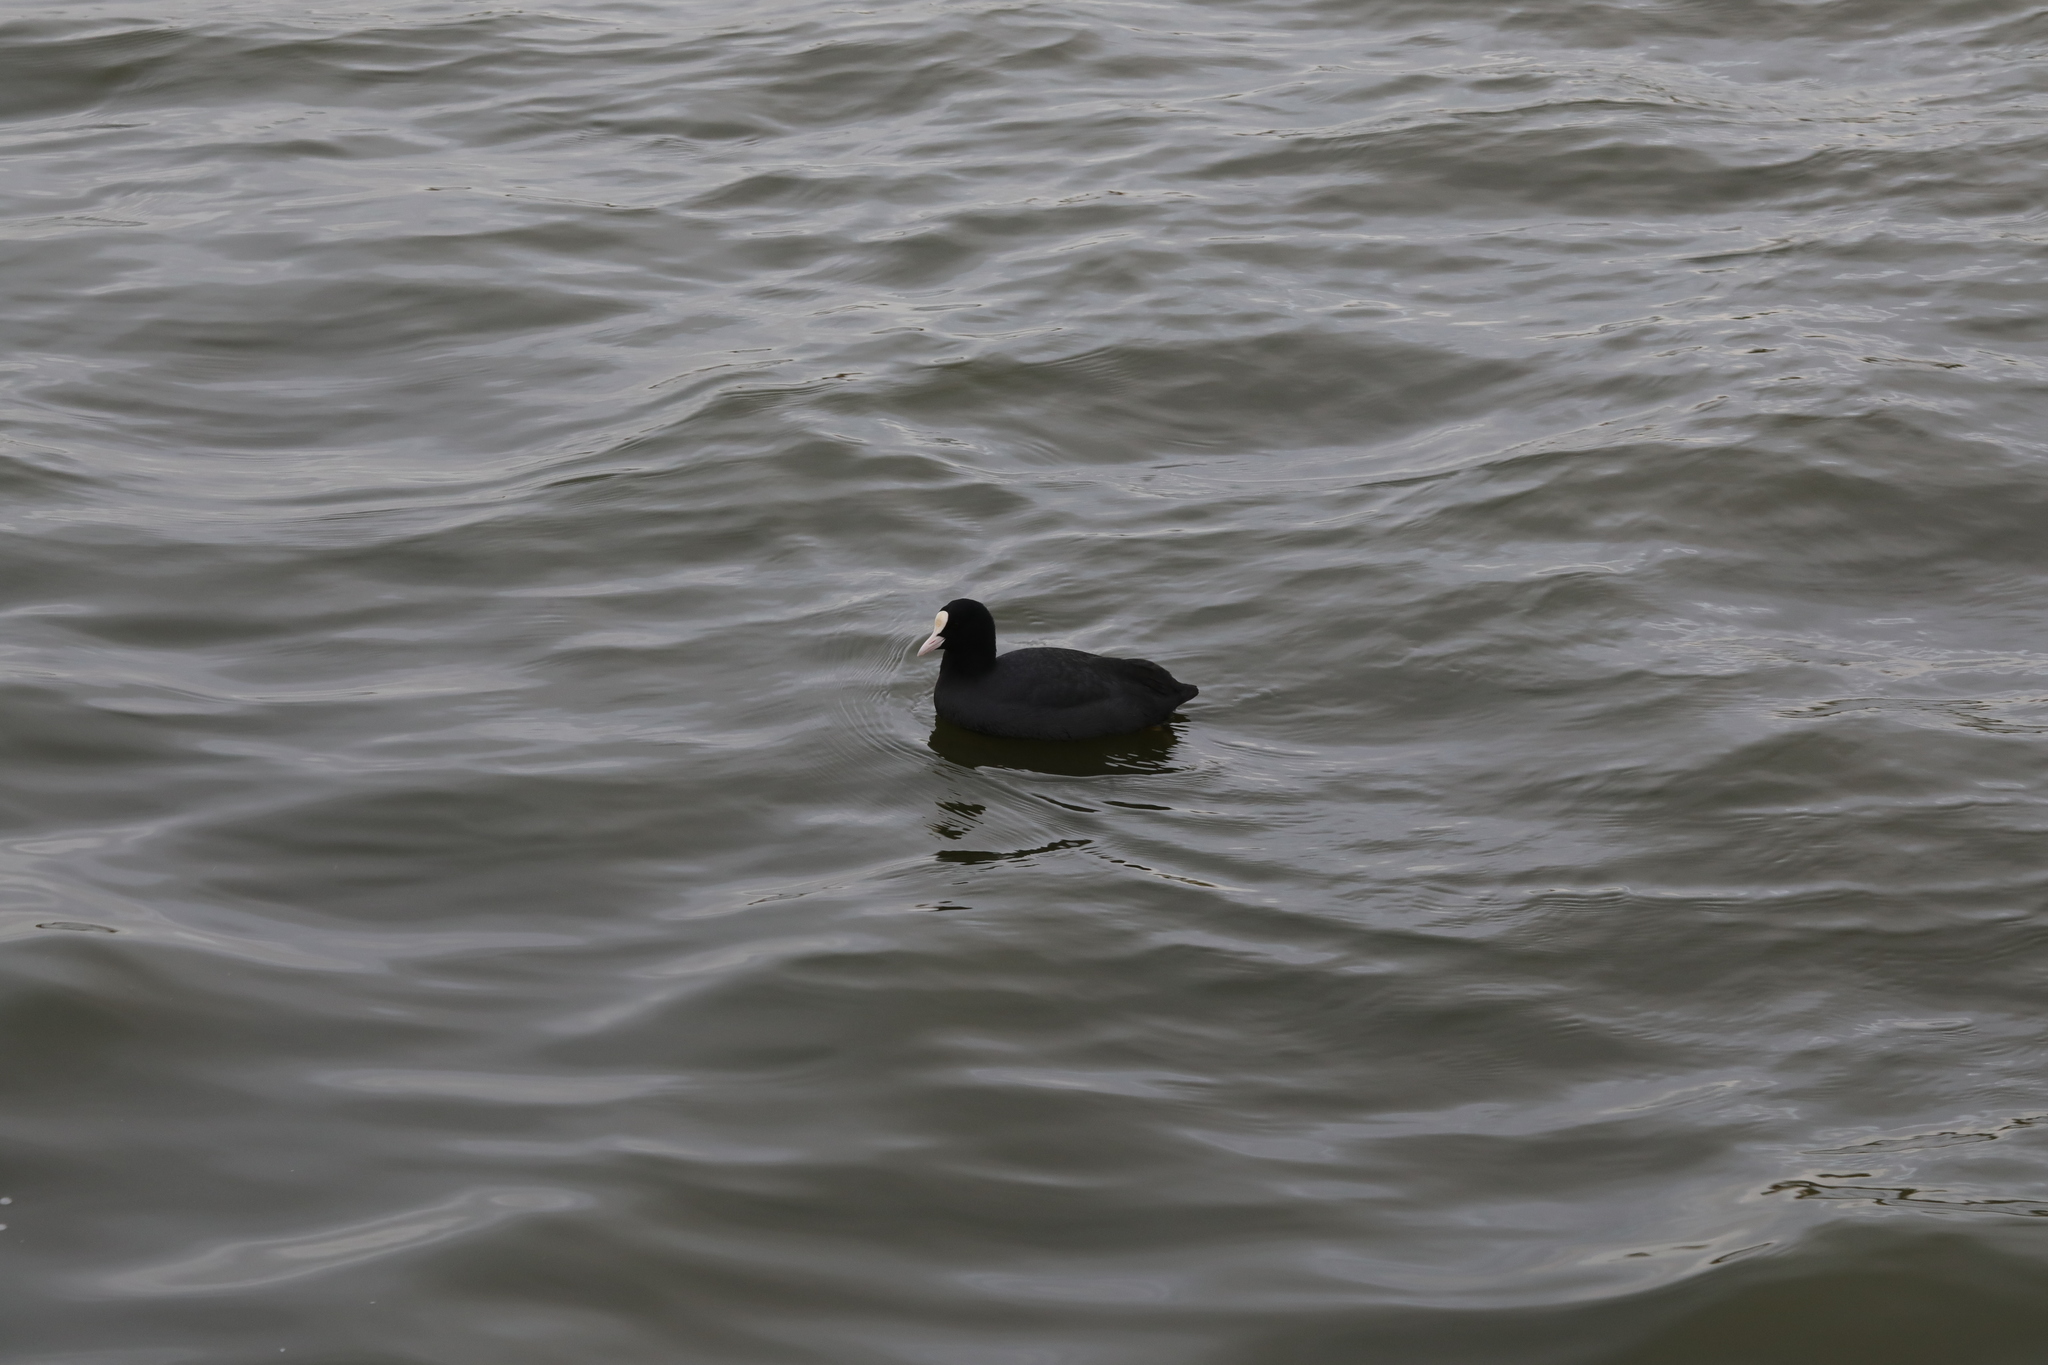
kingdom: Animalia
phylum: Chordata
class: Aves
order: Gruiformes
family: Rallidae
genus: Fulica
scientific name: Fulica atra
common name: Eurasian coot
